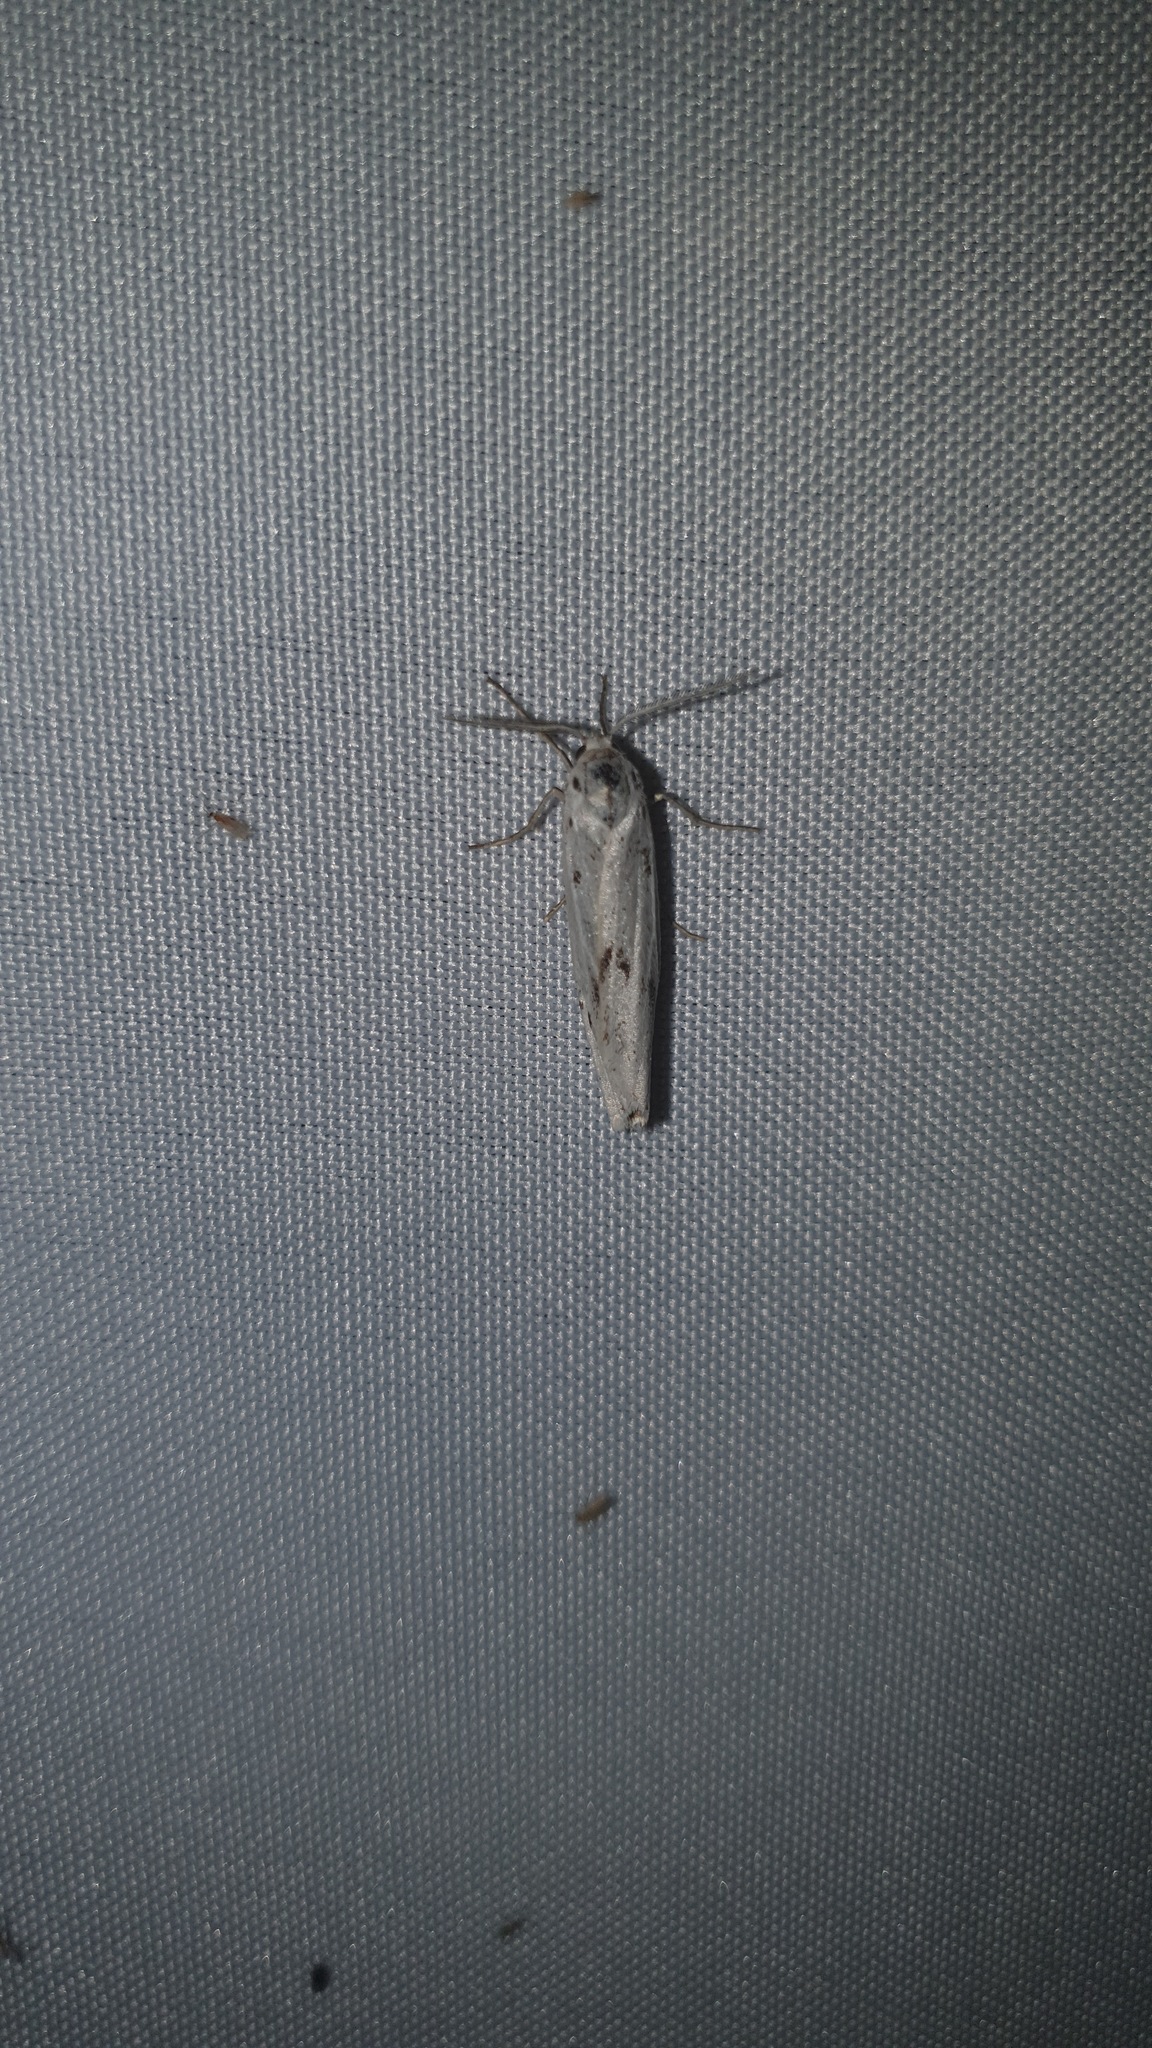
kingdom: Animalia
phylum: Arthropoda
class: Insecta
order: Lepidoptera
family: Erebidae
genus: Coscinia
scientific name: Coscinia cribraria
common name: Speckled footman
